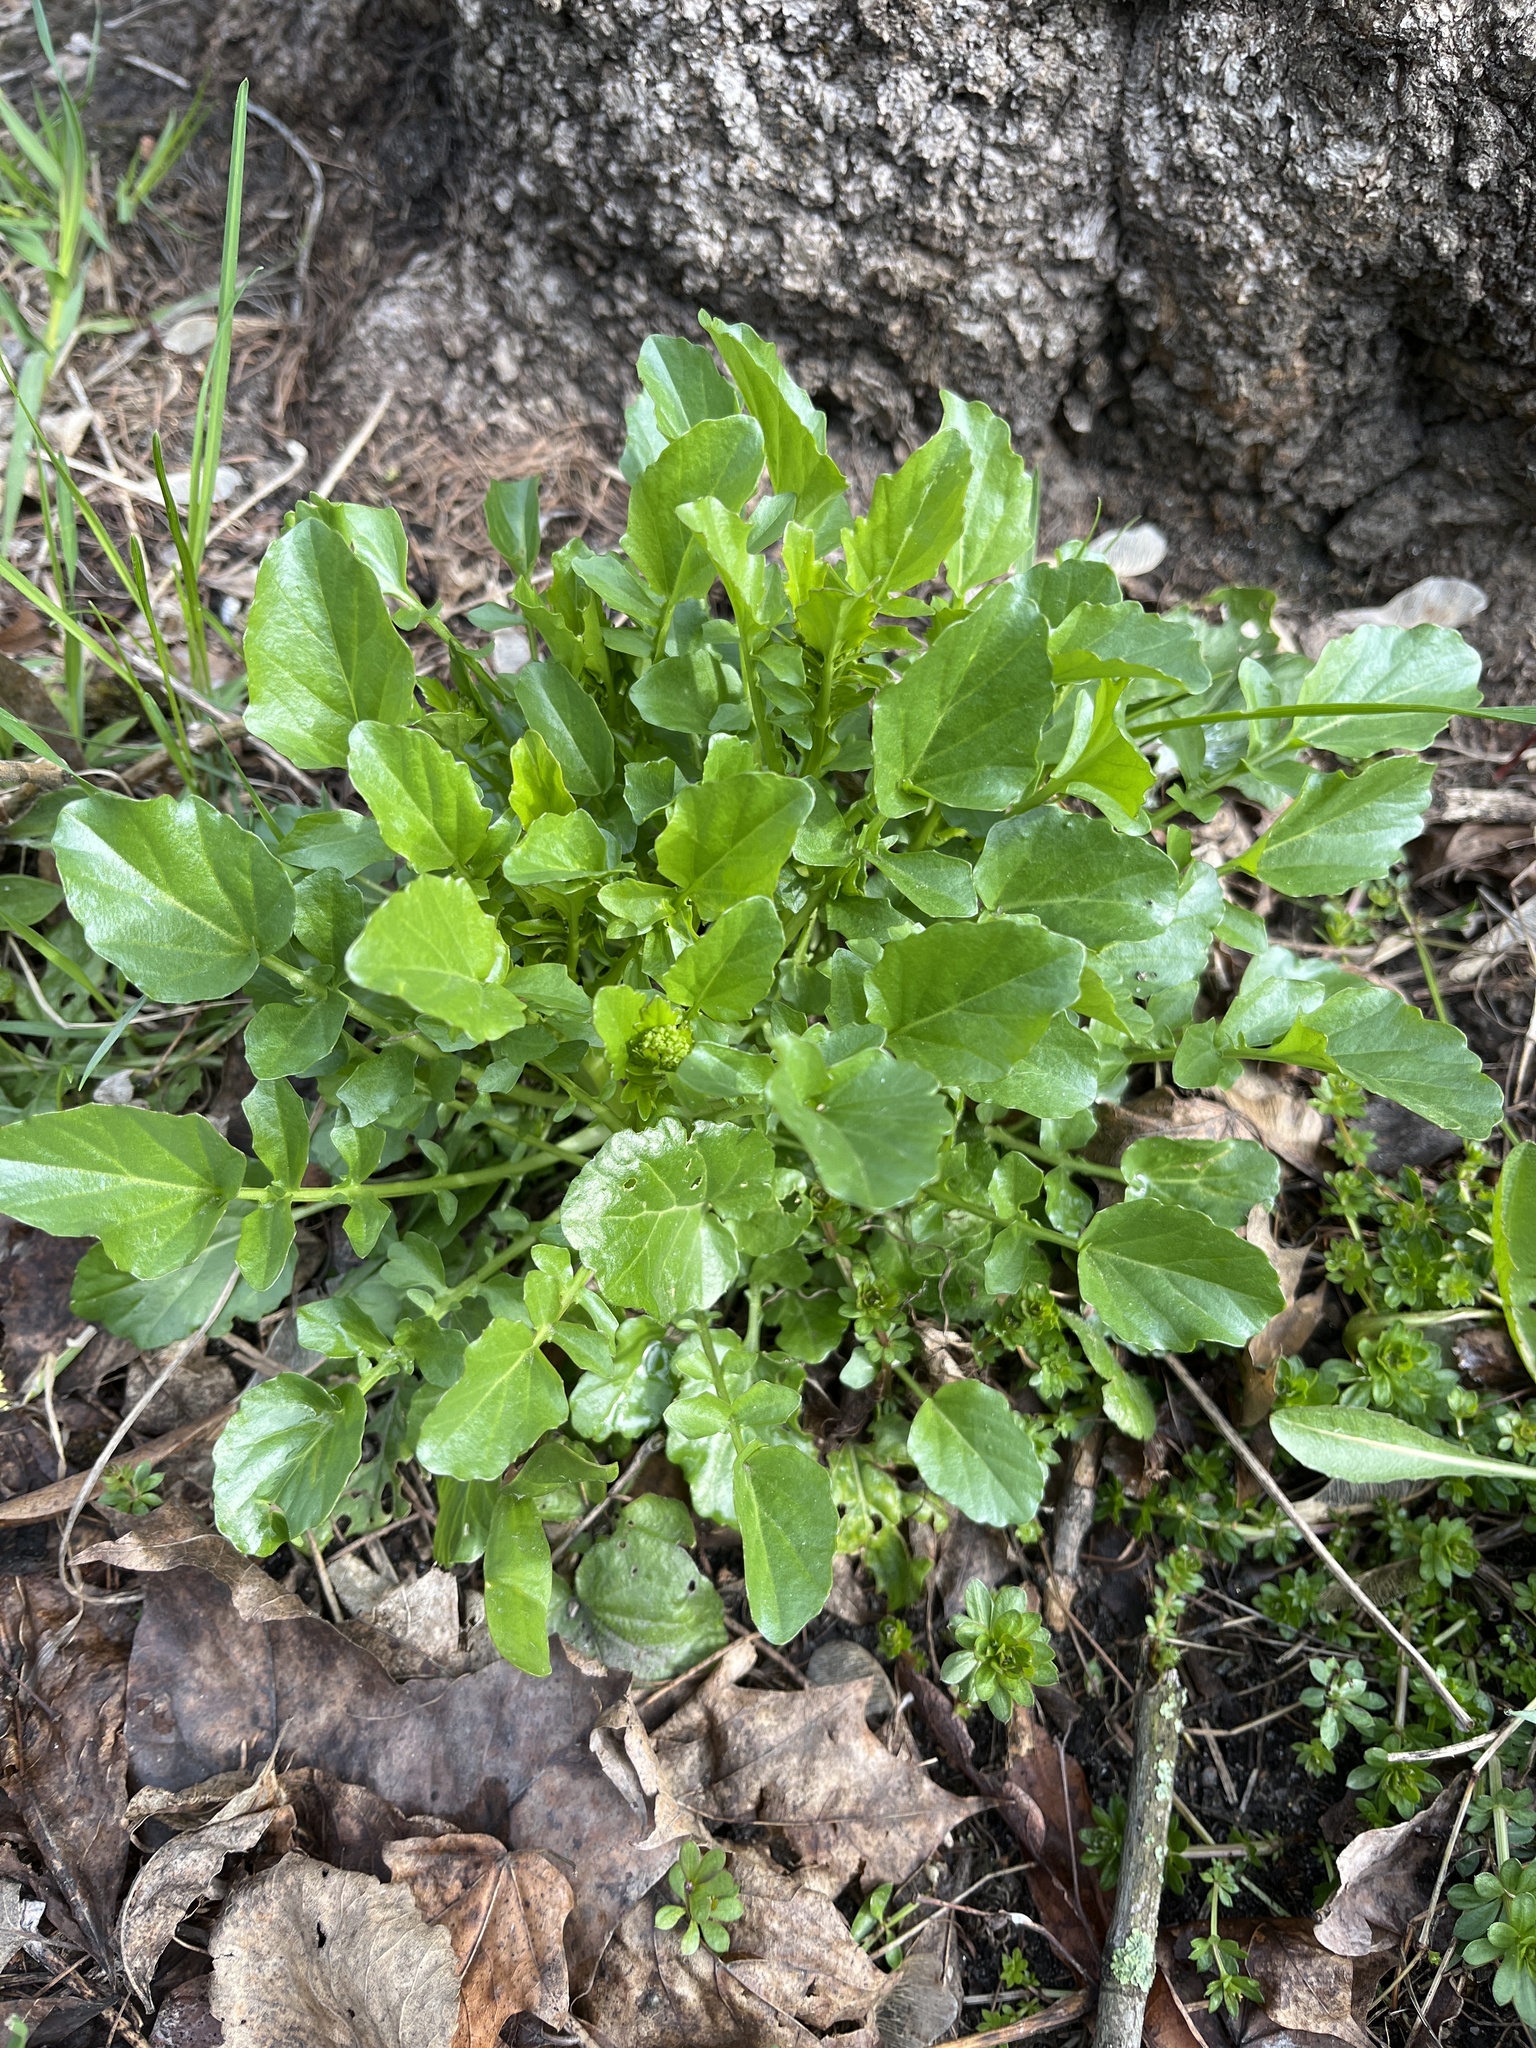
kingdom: Plantae
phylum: Tracheophyta
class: Magnoliopsida
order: Brassicales
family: Brassicaceae
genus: Barbarea
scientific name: Barbarea vulgaris
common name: Cressy-greens
